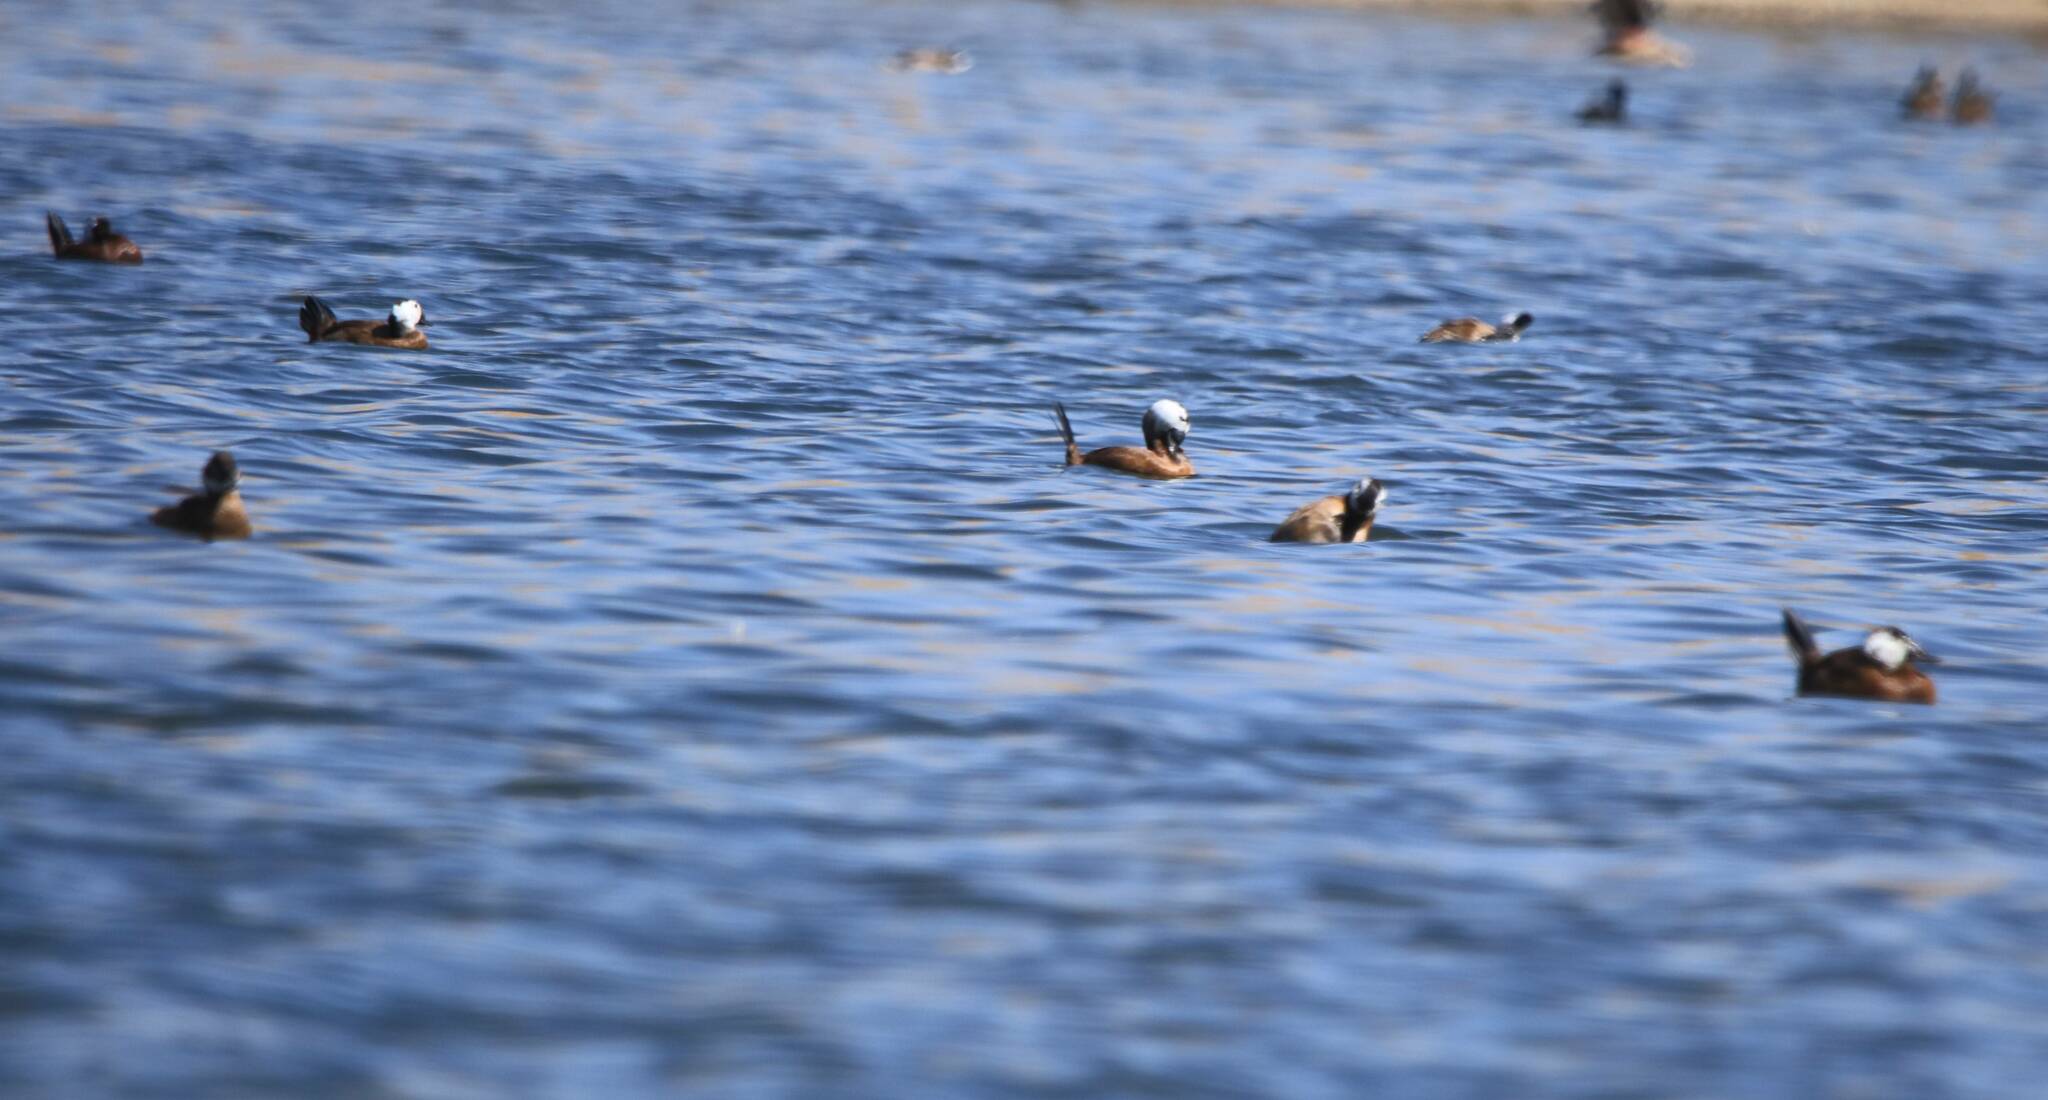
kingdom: Animalia
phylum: Chordata
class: Aves
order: Anseriformes
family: Anatidae
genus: Oxyura
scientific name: Oxyura leucocephala
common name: White-headed duck
